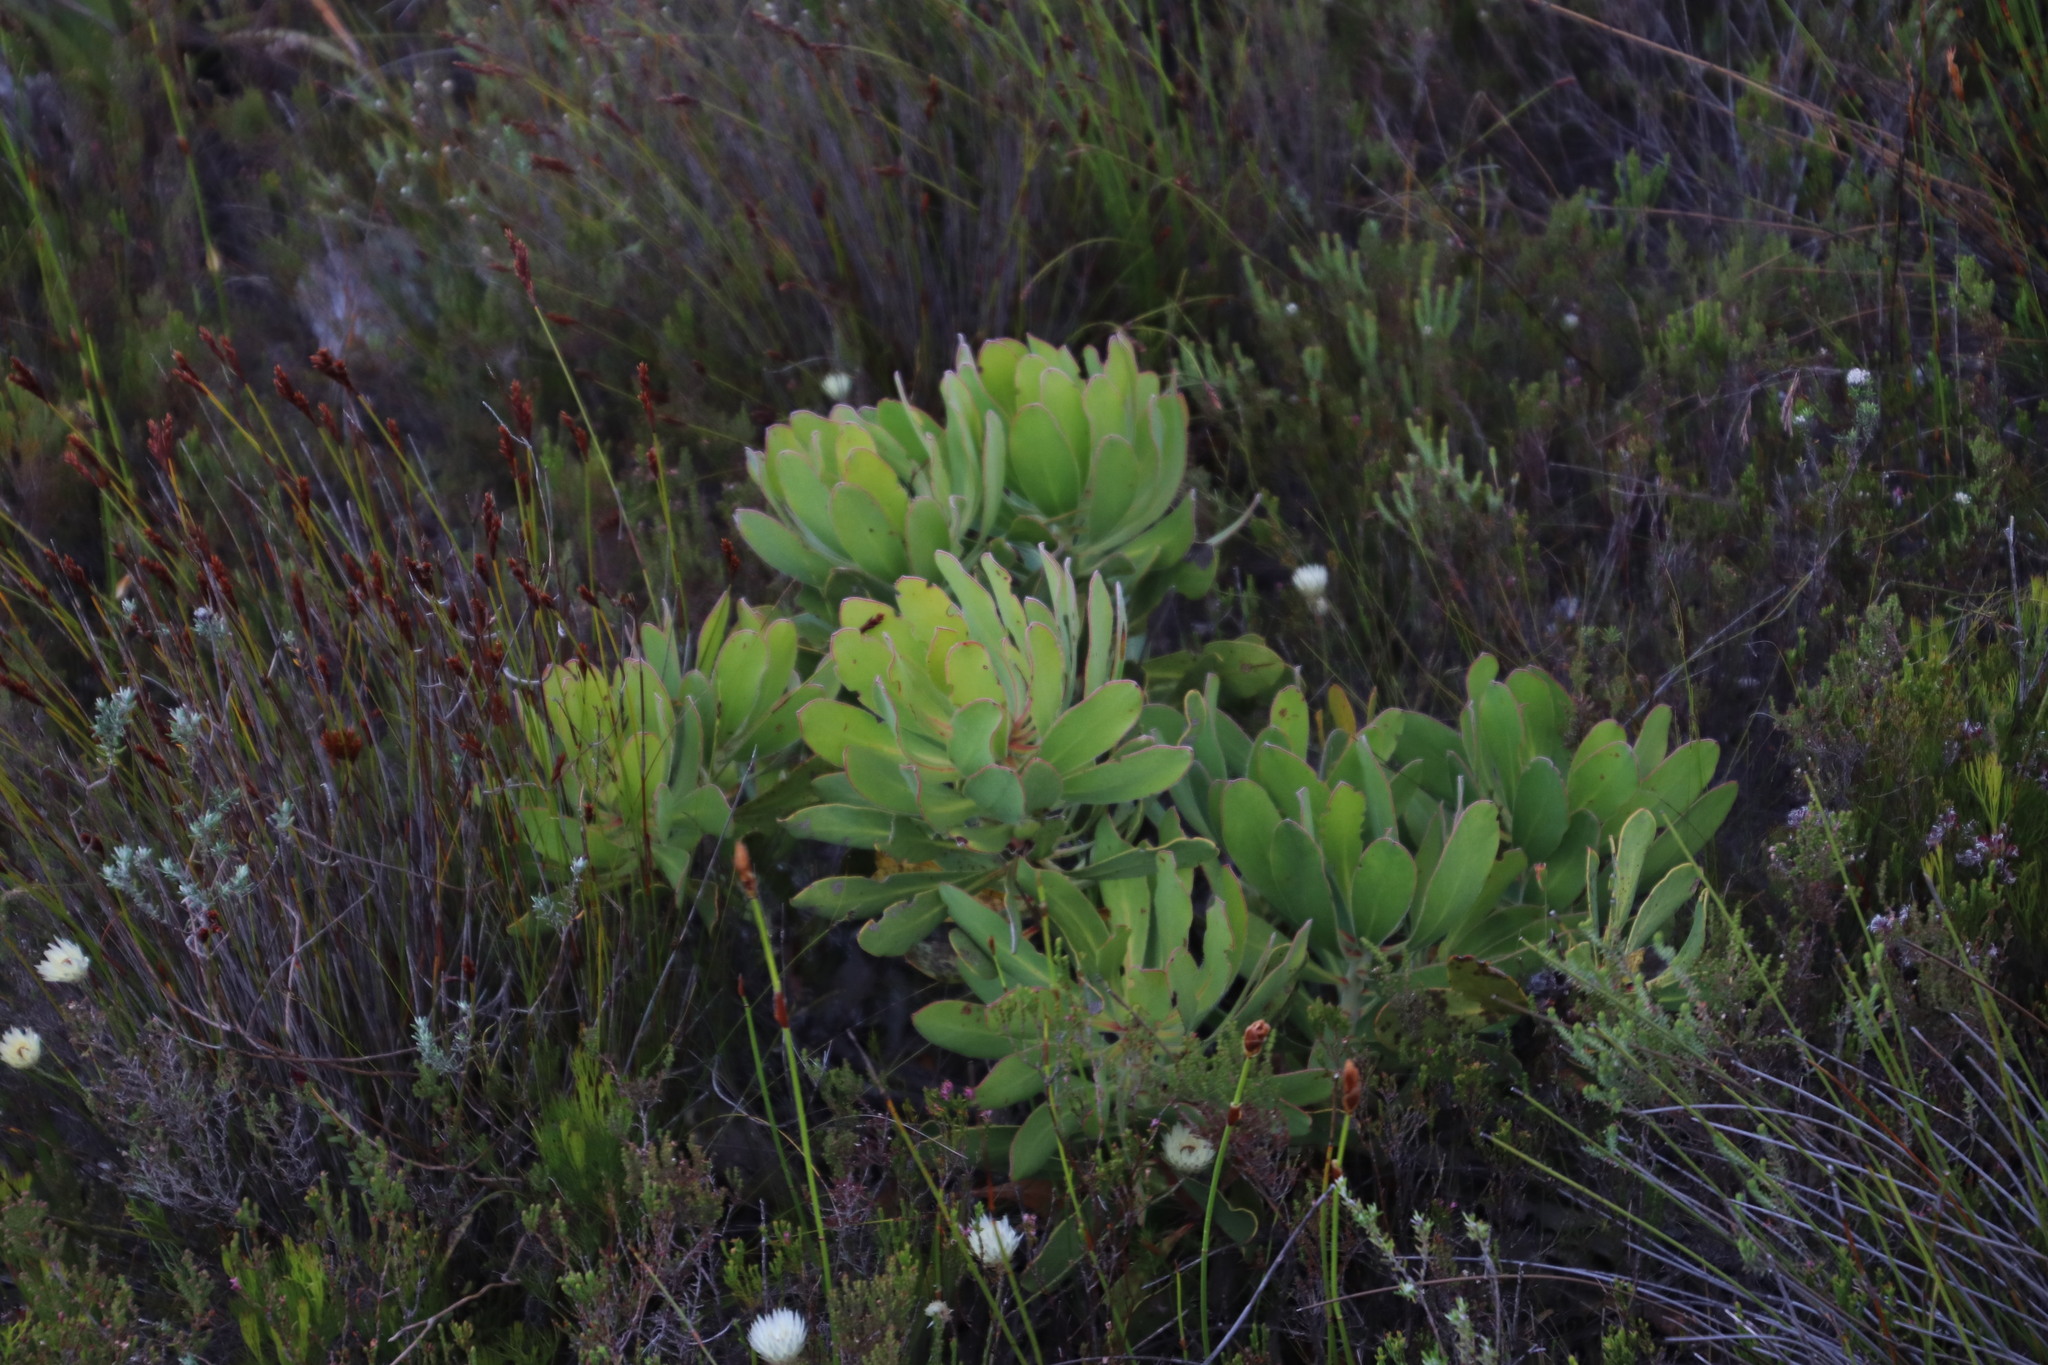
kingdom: Plantae
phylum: Tracheophyta
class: Magnoliopsida
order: Proteales
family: Proteaceae
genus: Protea
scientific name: Protea speciosa
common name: Brown-beard sugarbush
